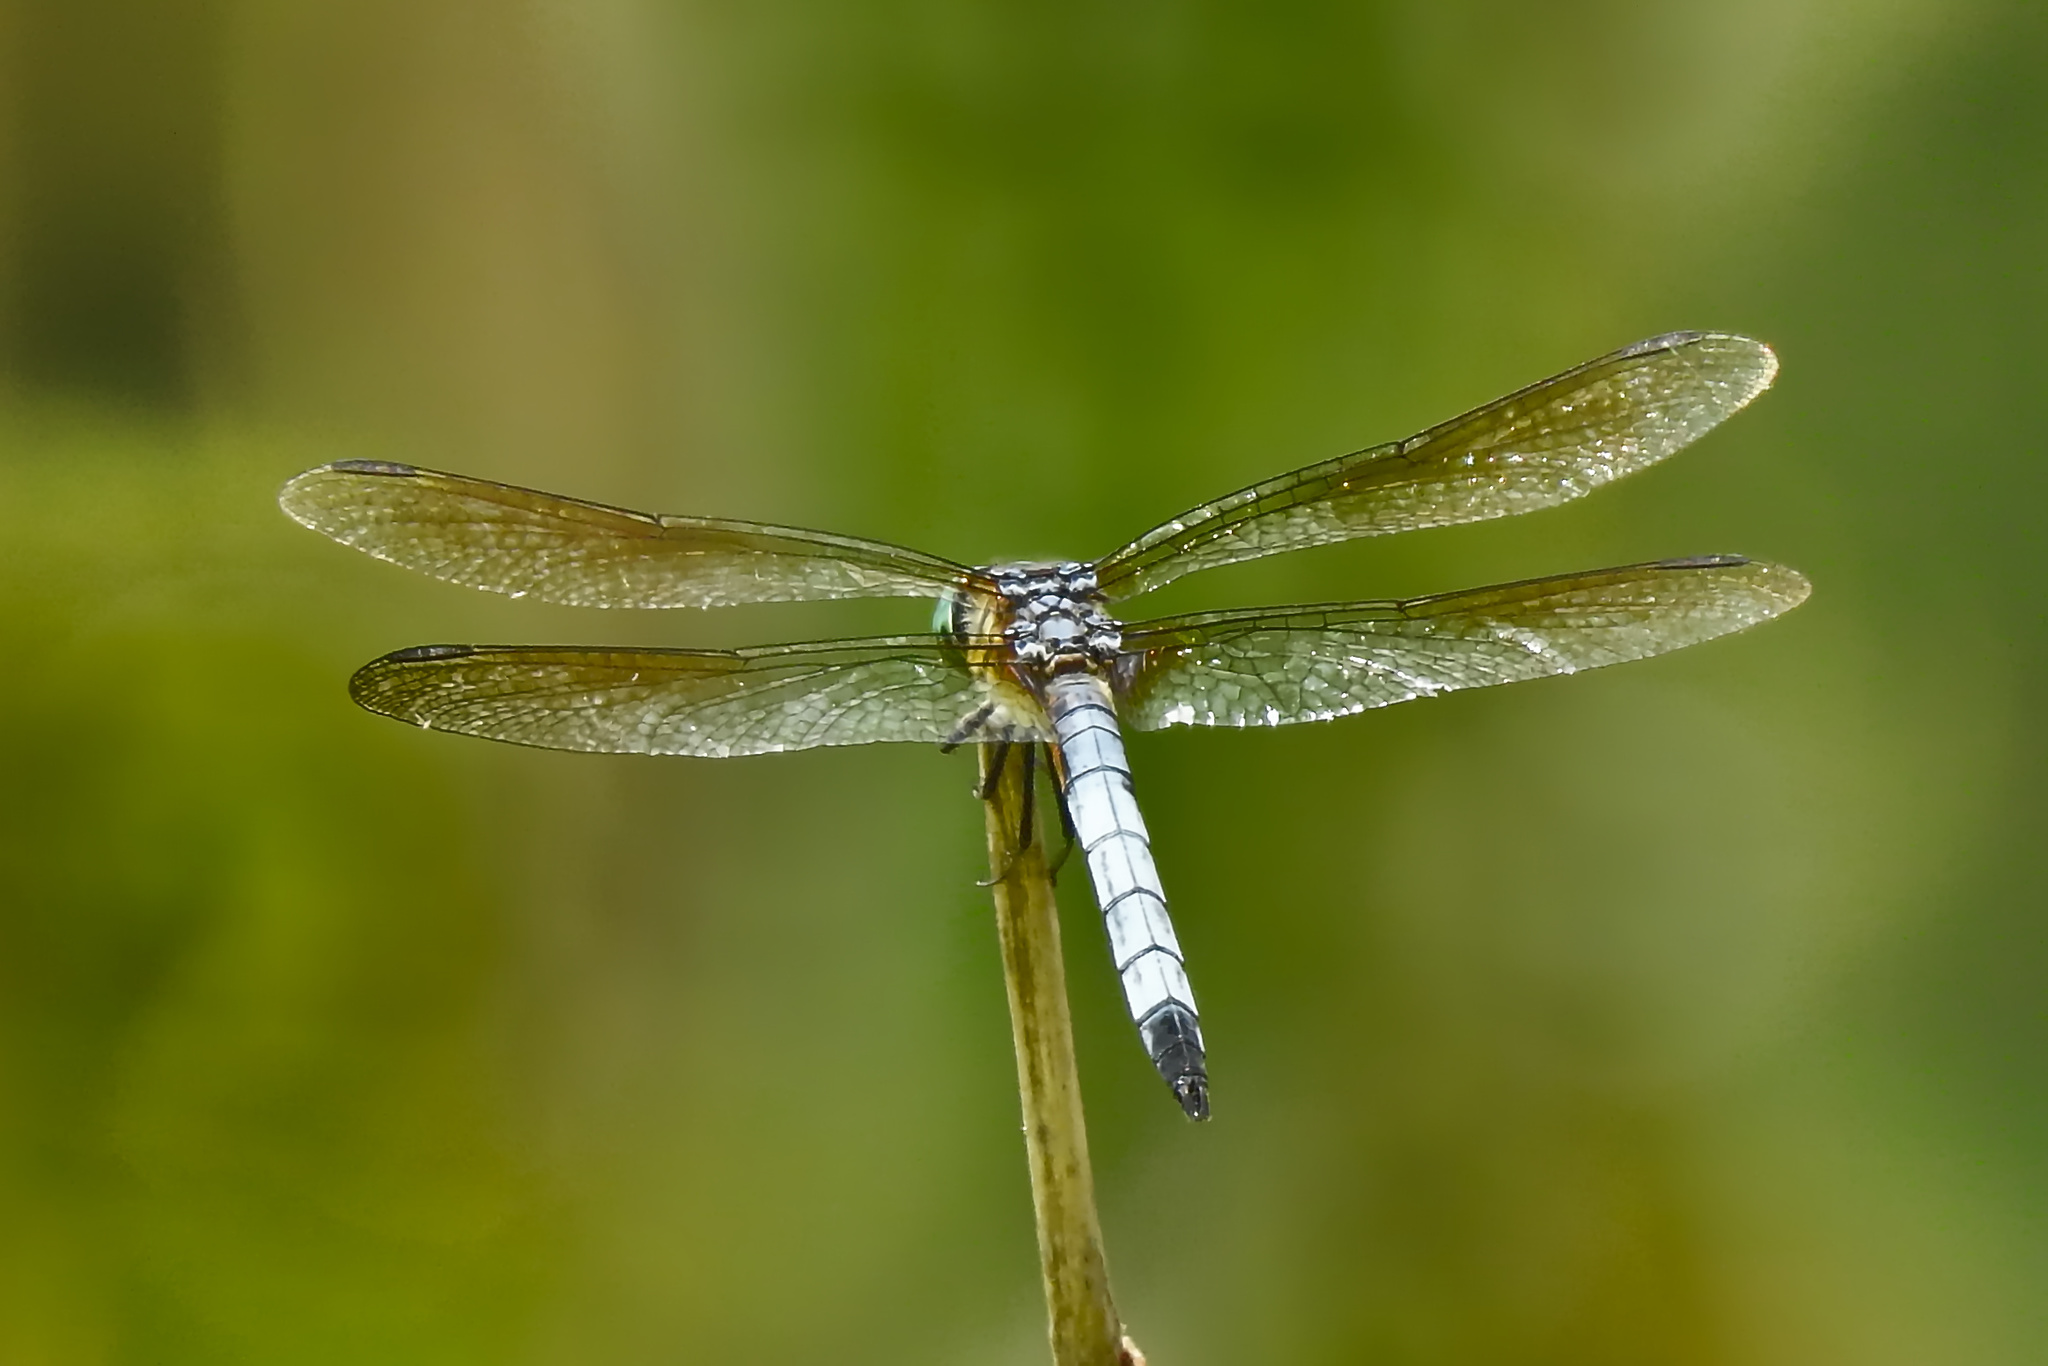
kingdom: Animalia
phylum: Arthropoda
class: Insecta
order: Odonata
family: Libellulidae
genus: Pachydiplax
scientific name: Pachydiplax longipennis
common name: Blue dasher
